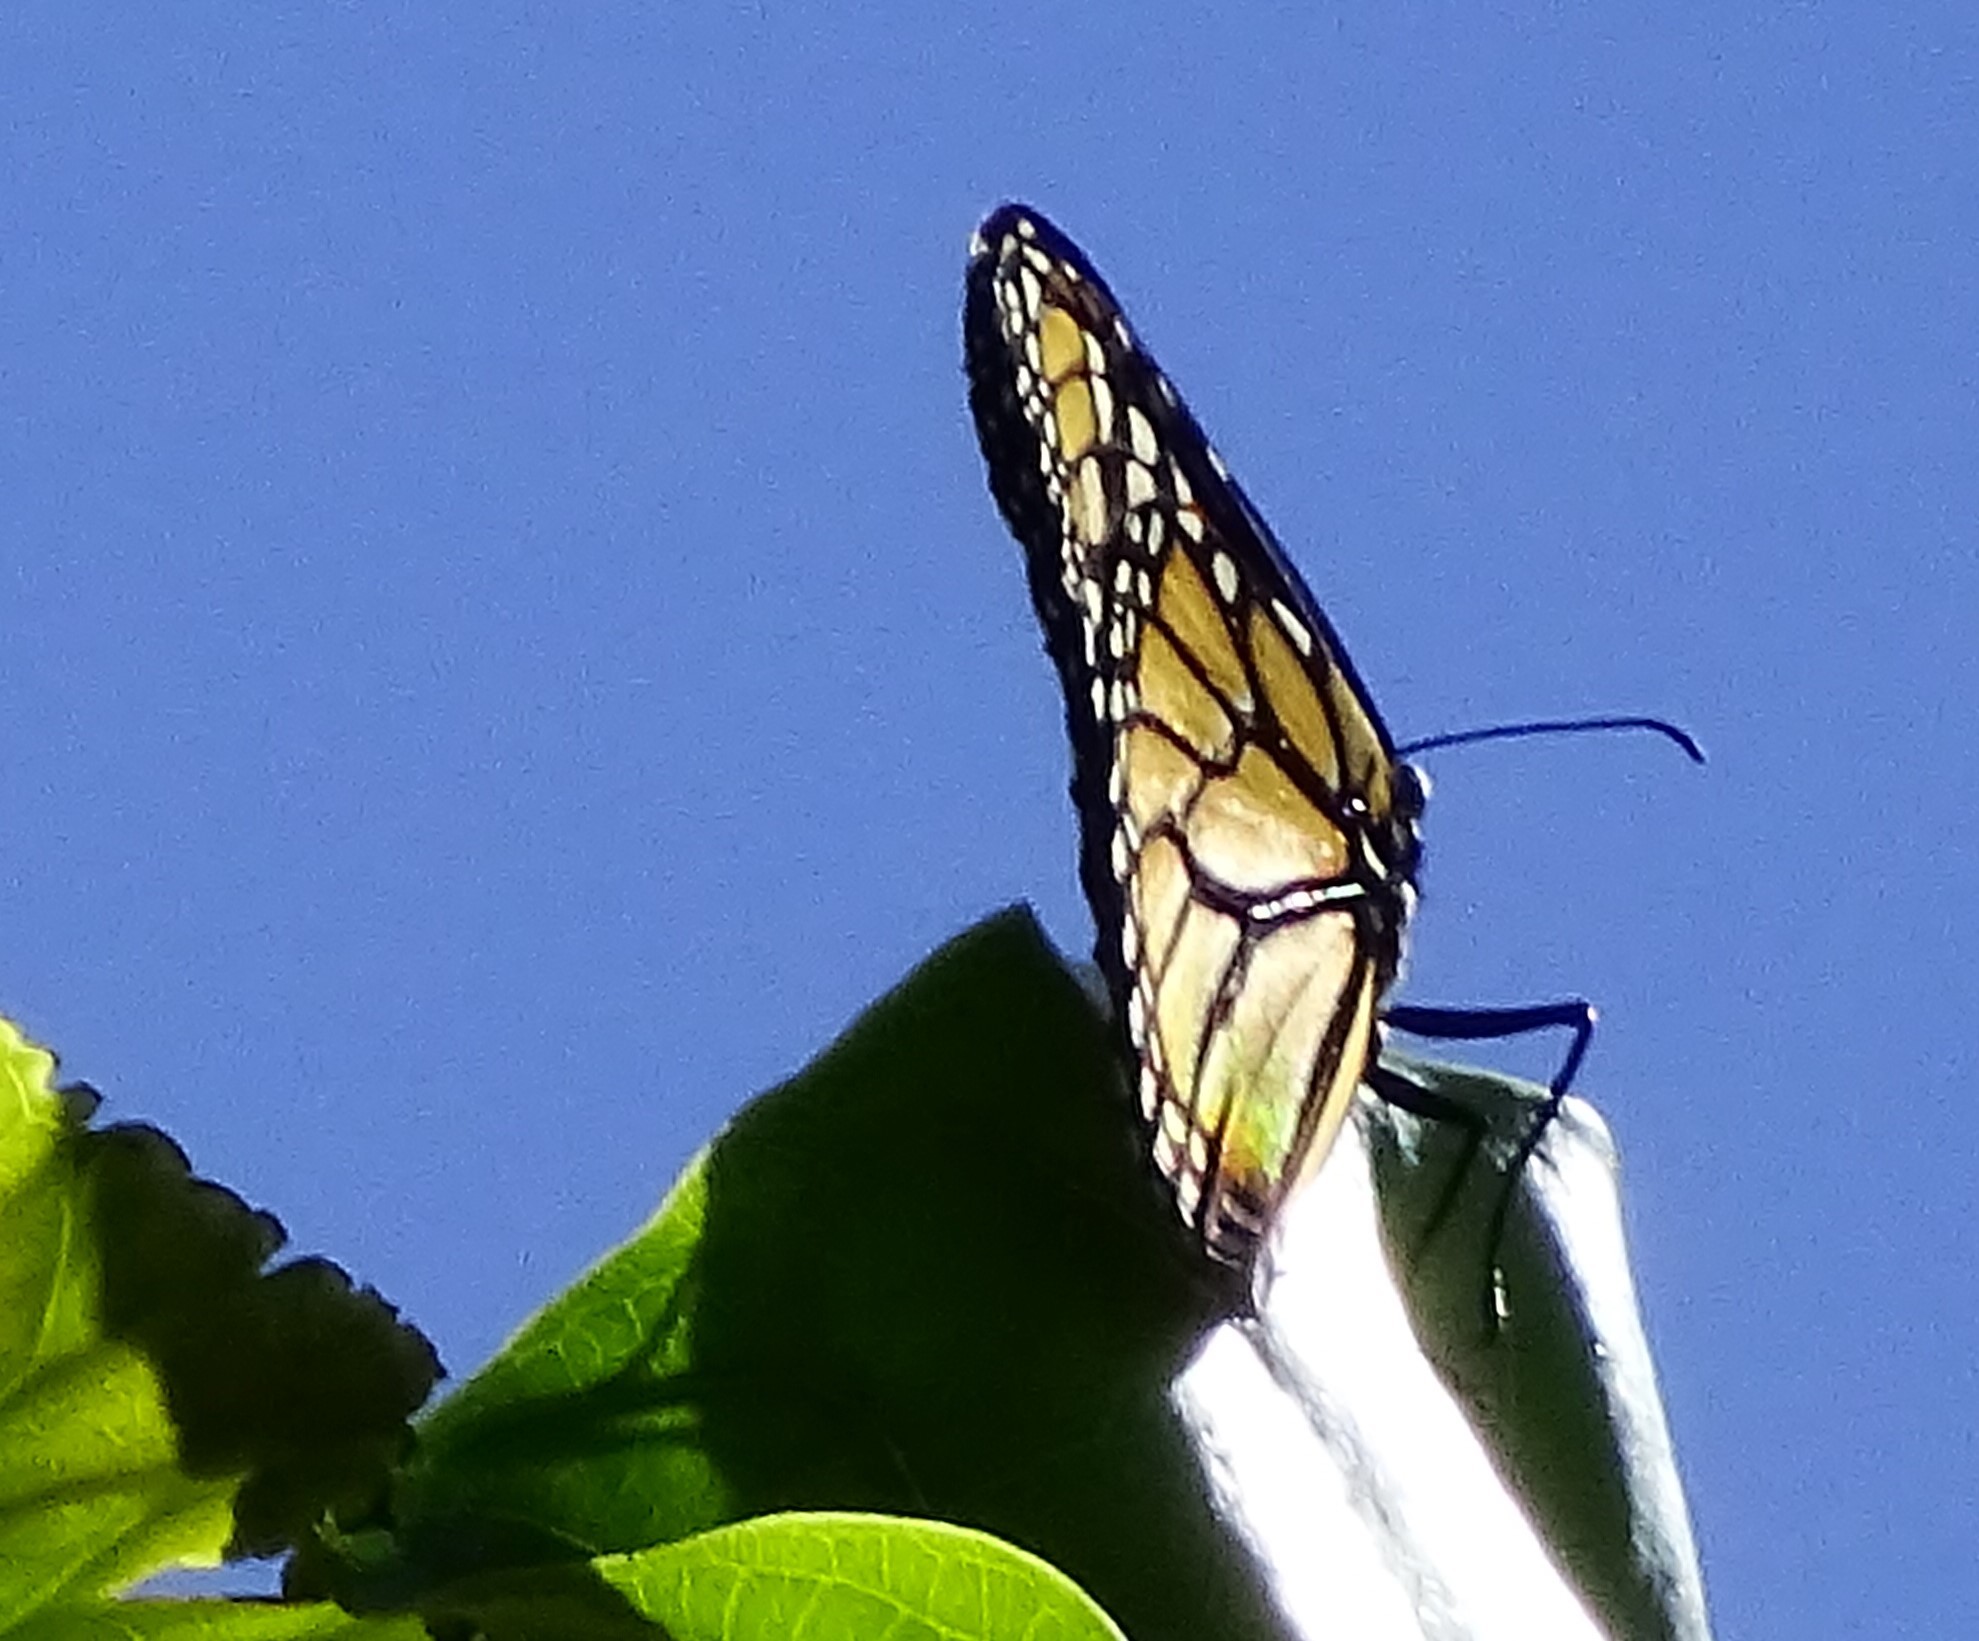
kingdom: Animalia
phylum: Arthropoda
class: Insecta
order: Lepidoptera
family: Nymphalidae
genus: Danaus
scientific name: Danaus plexippus
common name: Monarch
